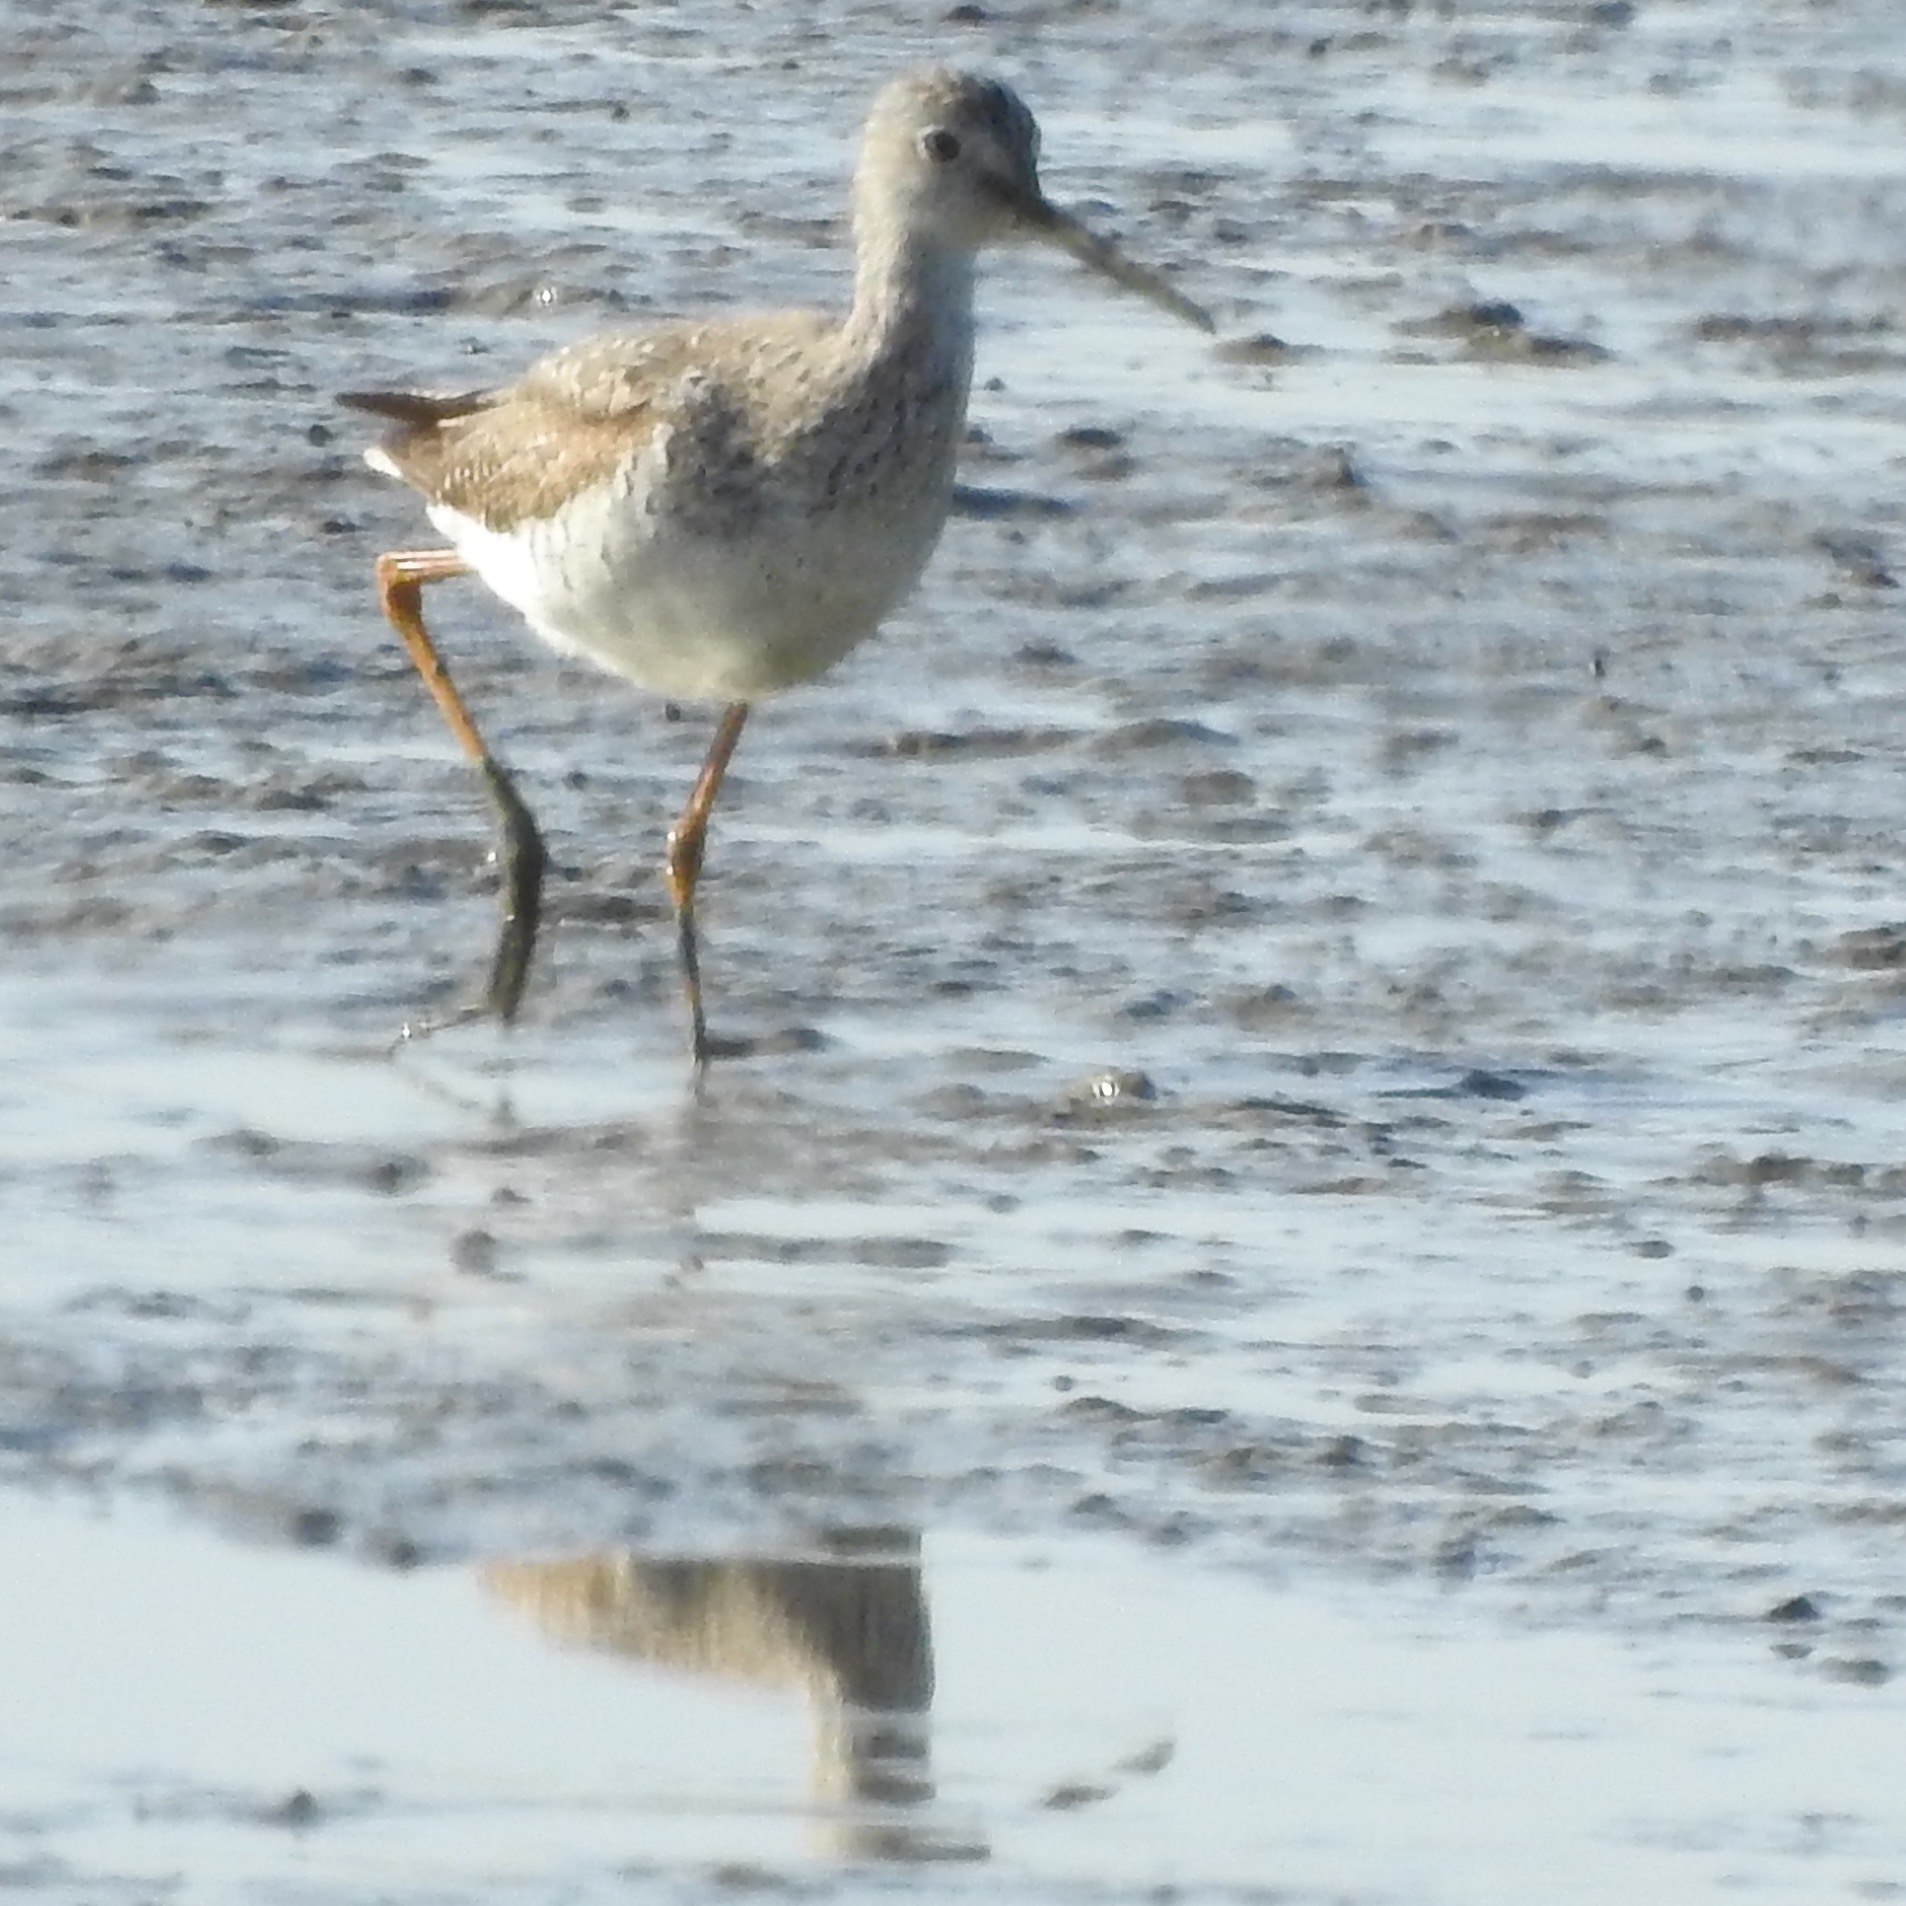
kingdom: Animalia
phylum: Chordata
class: Aves
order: Charadriiformes
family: Scolopacidae
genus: Tringa
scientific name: Tringa melanoleuca
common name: Greater yellowlegs
